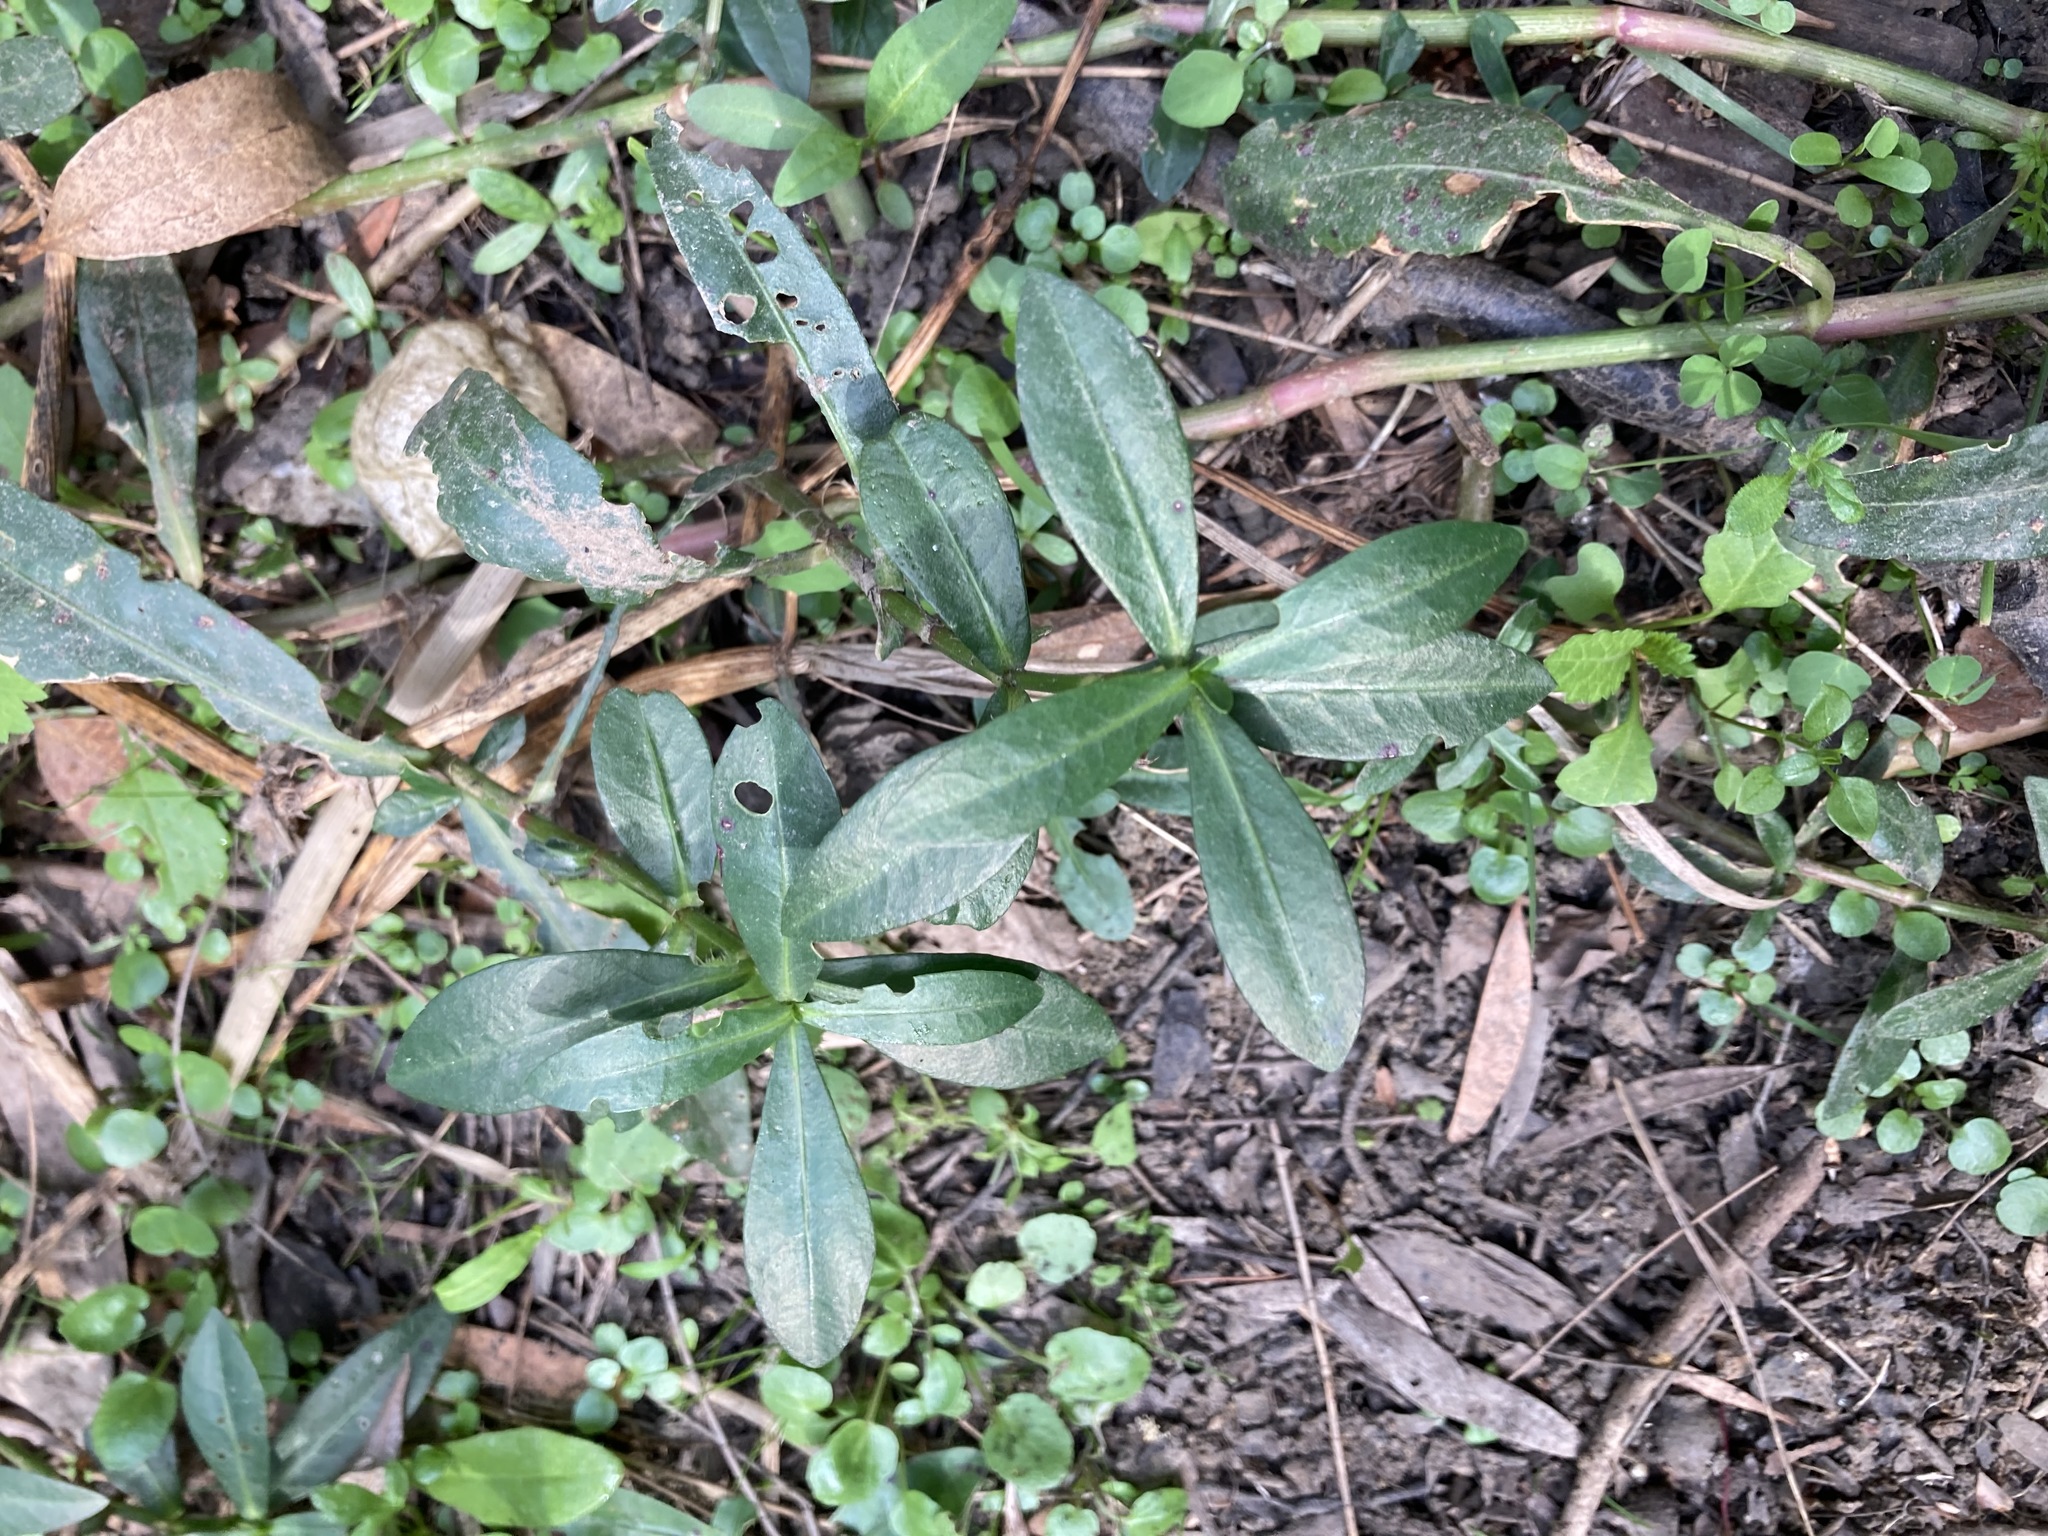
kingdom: Plantae
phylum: Tracheophyta
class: Magnoliopsida
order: Caryophyllales
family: Amaranthaceae
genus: Alternanthera
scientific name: Alternanthera philoxeroides
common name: Alligatorweed
